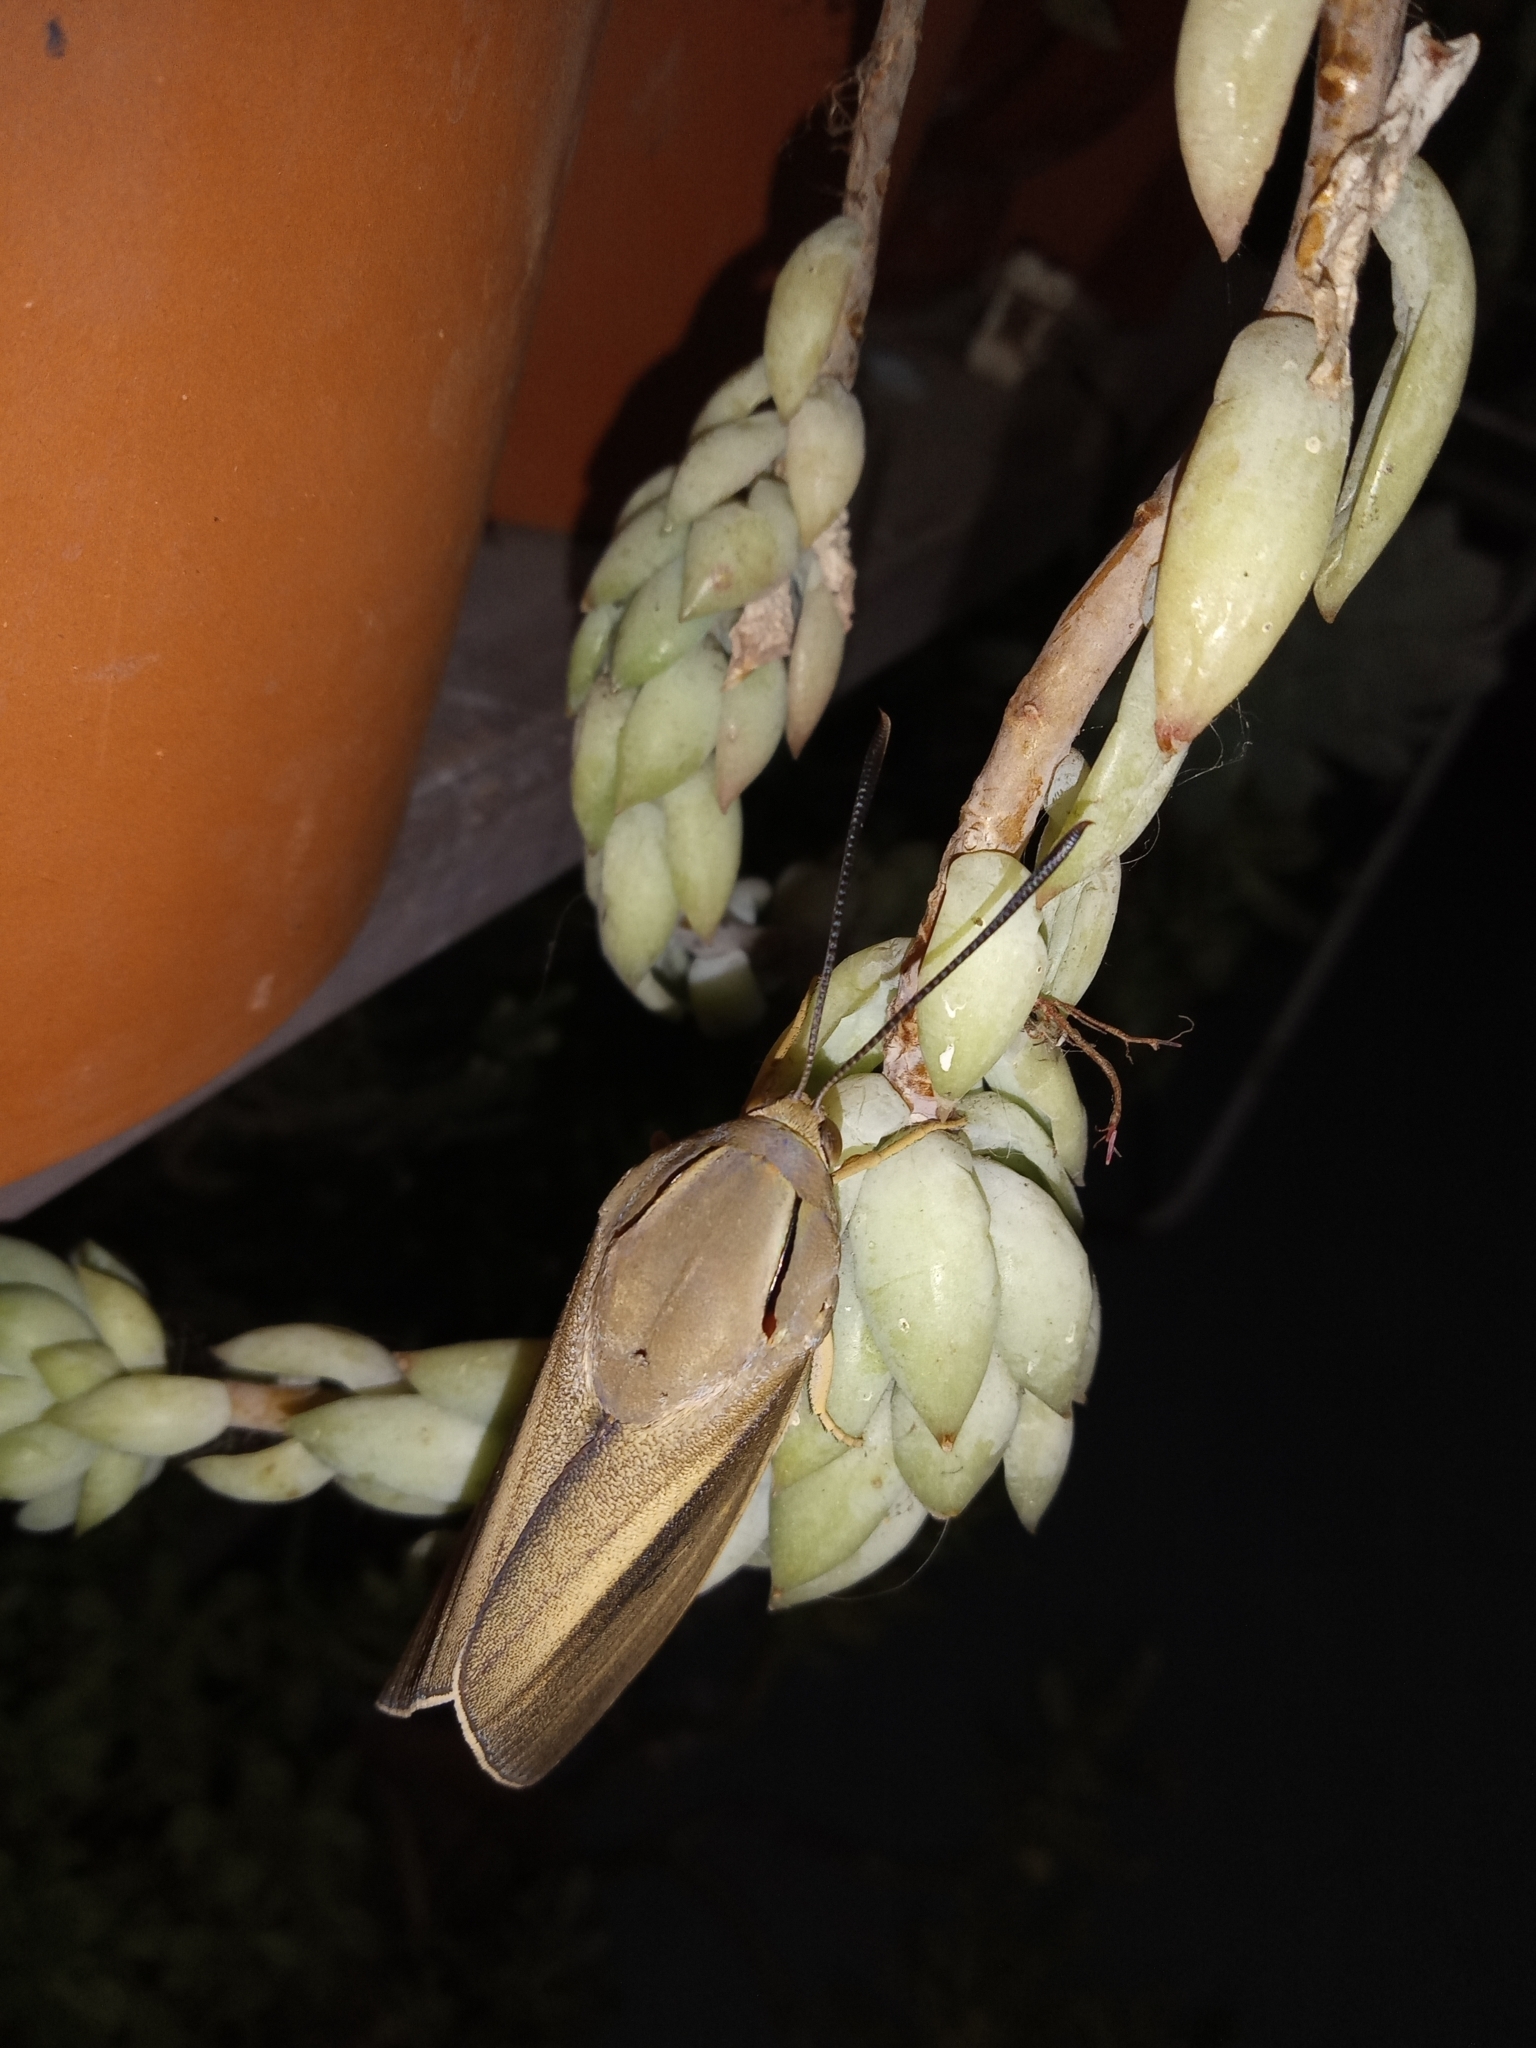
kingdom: Animalia
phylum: Arthropoda
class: Insecta
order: Lepidoptera
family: Castniidae
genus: Paysandisia
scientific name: Paysandisia archon
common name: Palm moth
